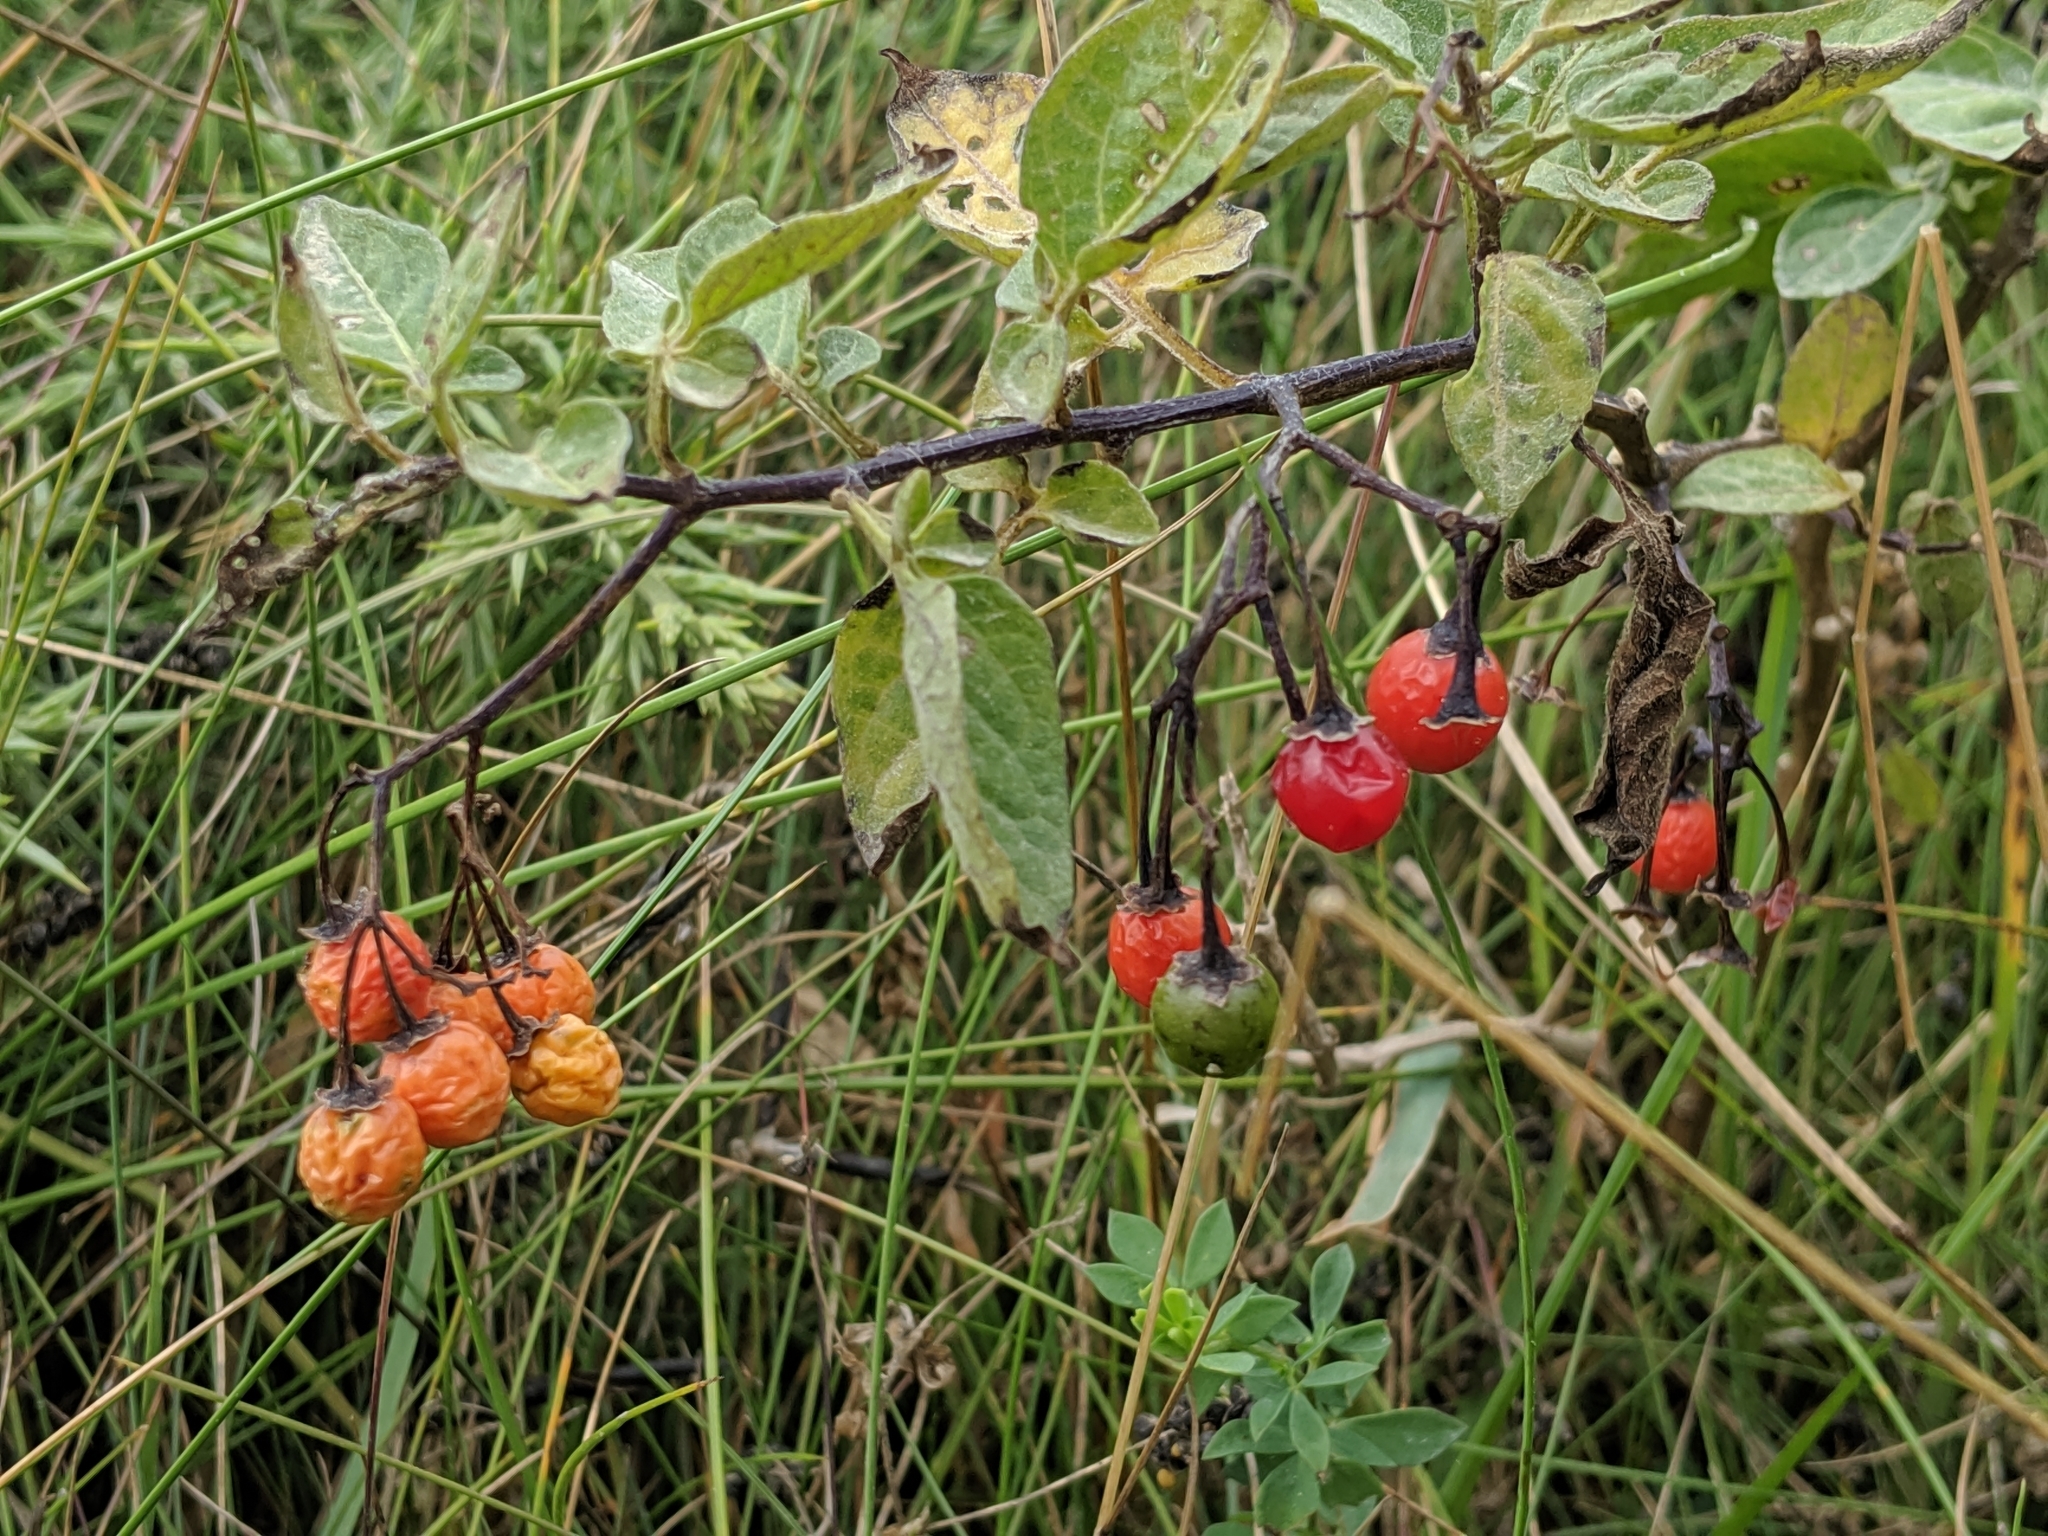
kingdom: Plantae
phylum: Tracheophyta
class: Magnoliopsida
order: Solanales
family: Solanaceae
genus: Solanum
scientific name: Solanum dulcamara
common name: Climbing nightshade
